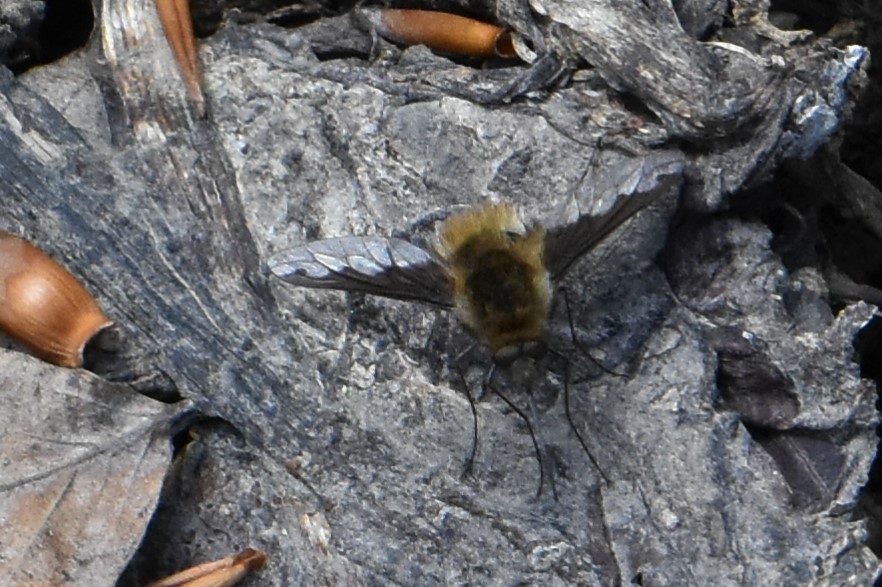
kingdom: Animalia
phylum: Arthropoda
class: Insecta
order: Diptera
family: Bombyliidae
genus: Bombylius
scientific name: Bombylius major
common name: Bee fly
